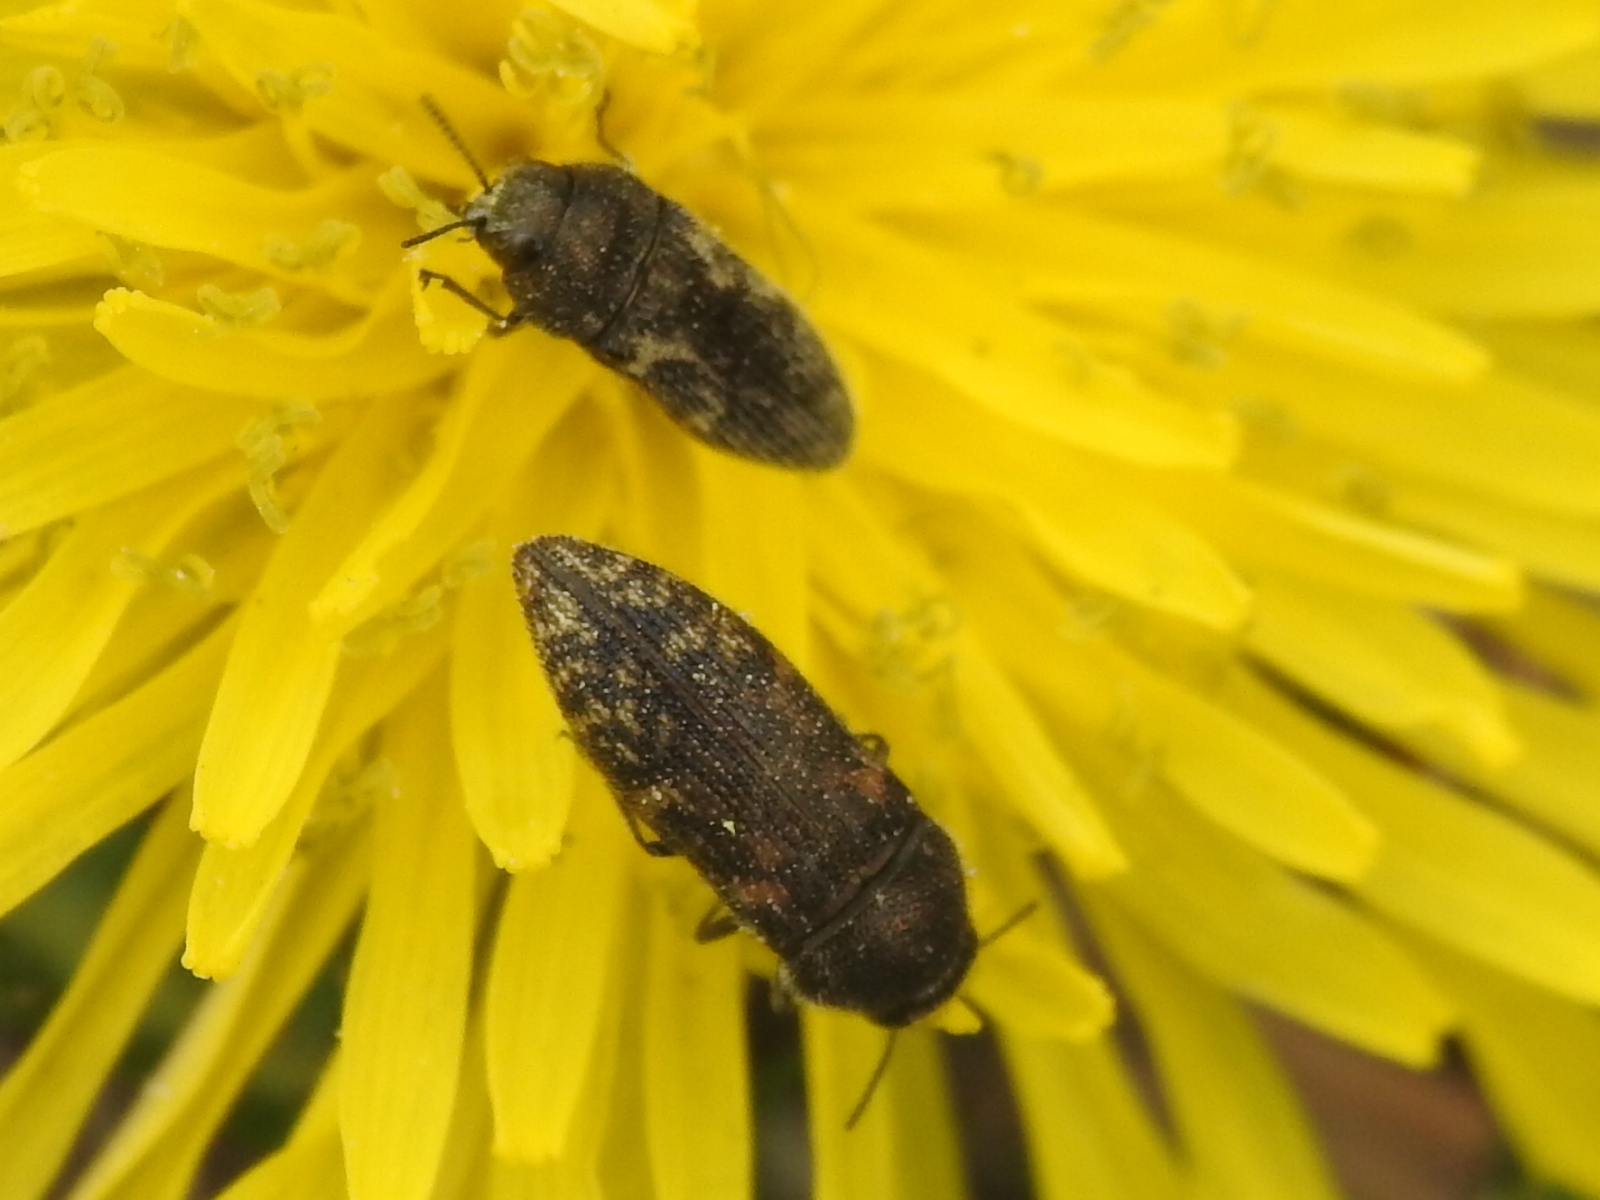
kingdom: Animalia
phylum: Arthropoda
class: Insecta
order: Coleoptera
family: Buprestidae
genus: Acmaeodera
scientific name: Acmaeodera neglecta
